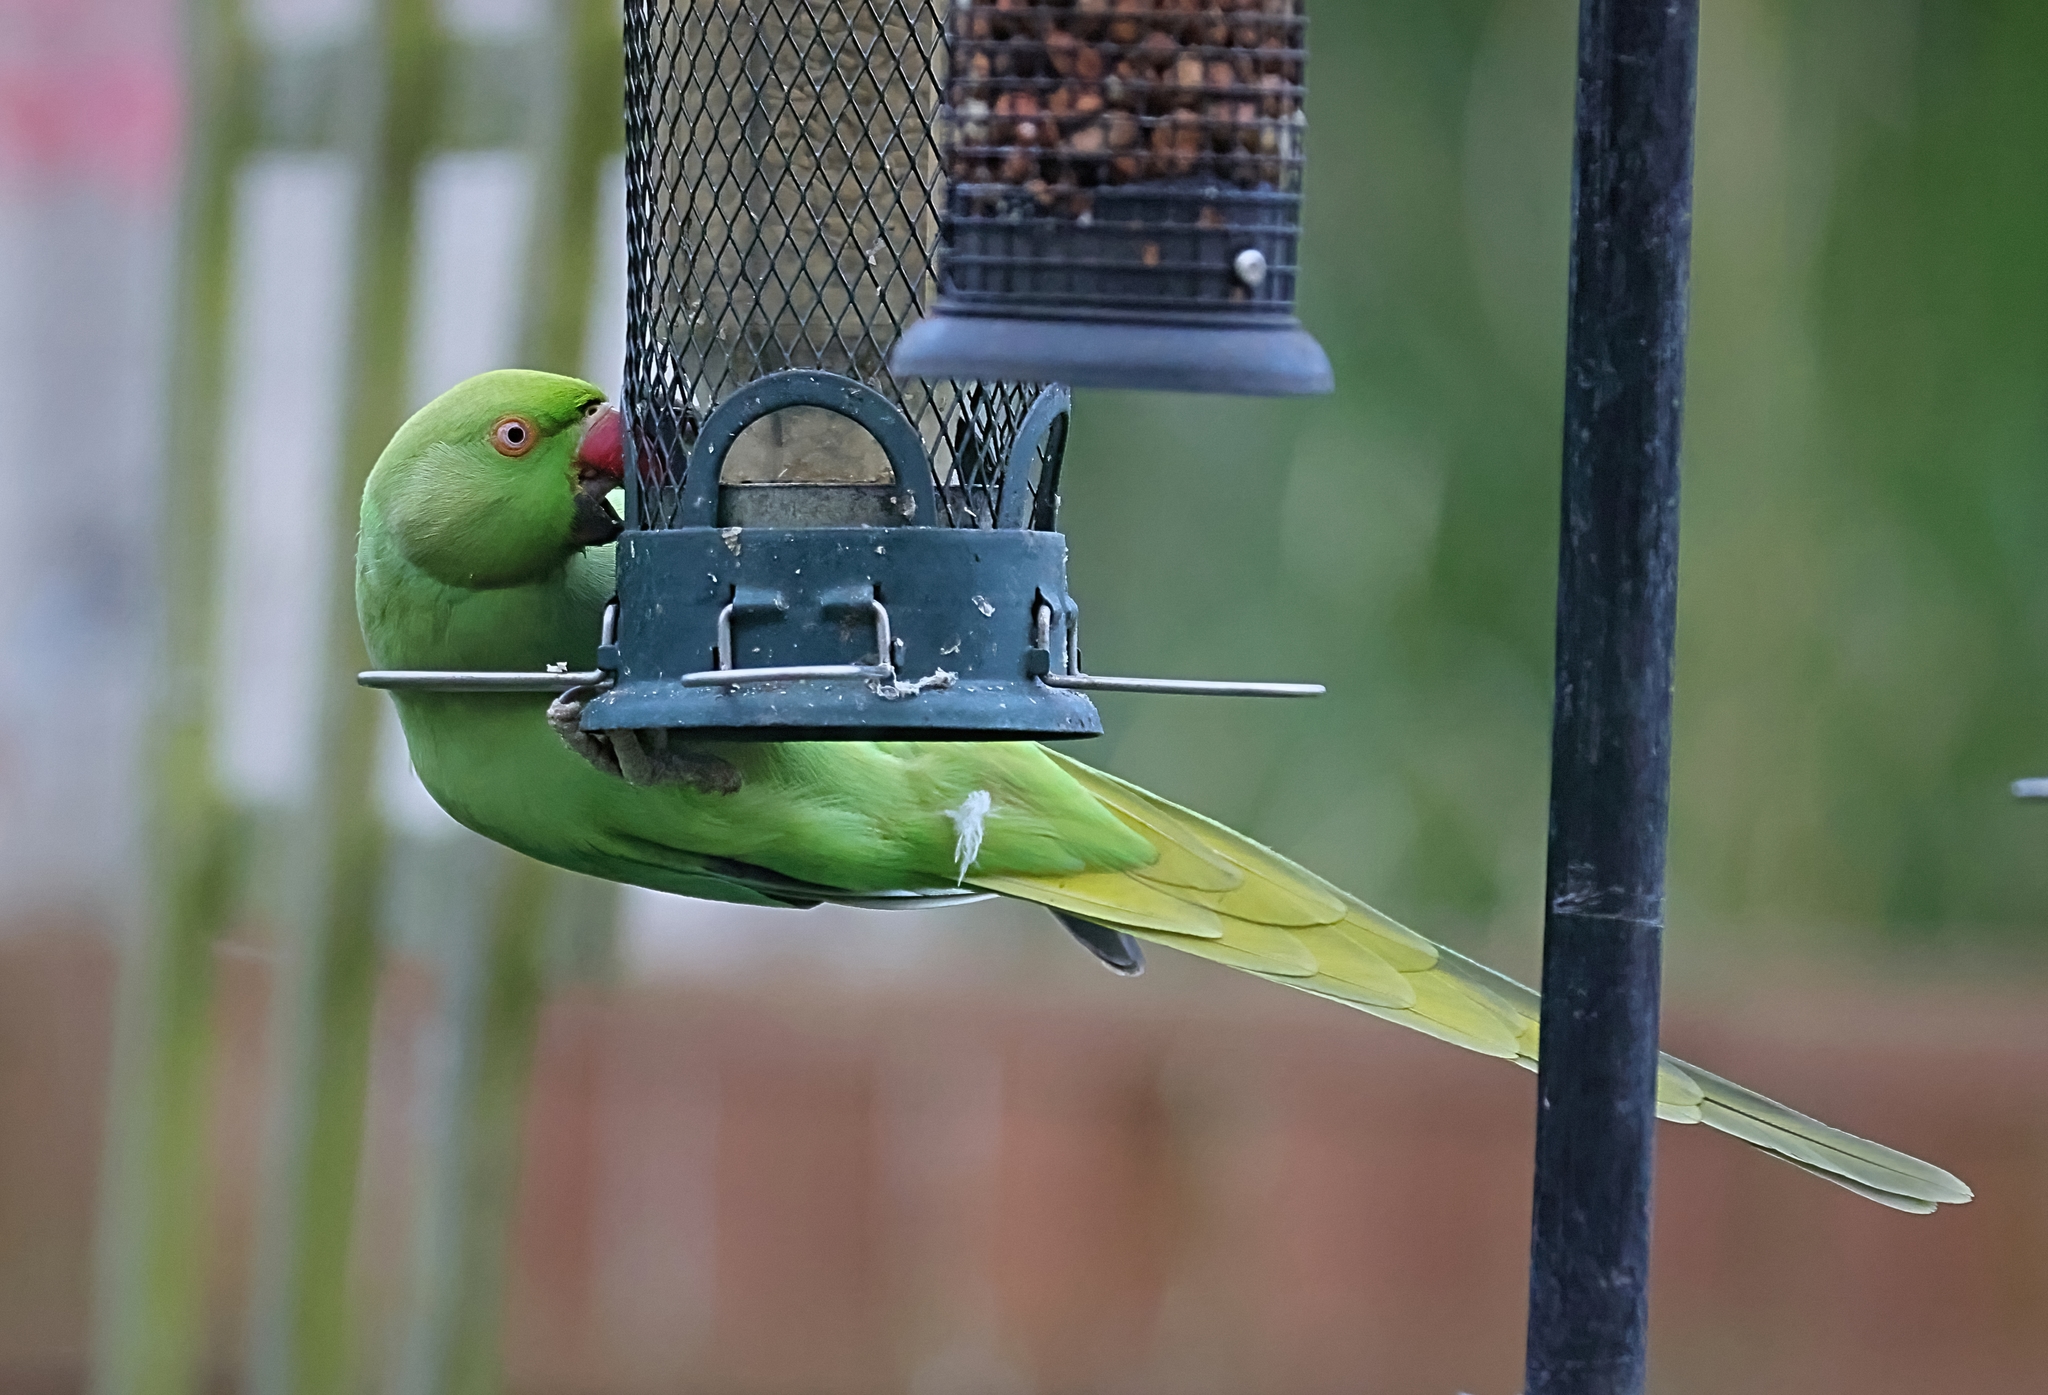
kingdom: Animalia
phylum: Chordata
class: Aves
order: Psittaciformes
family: Psittacidae
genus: Psittacula
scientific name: Psittacula krameri
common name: Rose-ringed parakeet
